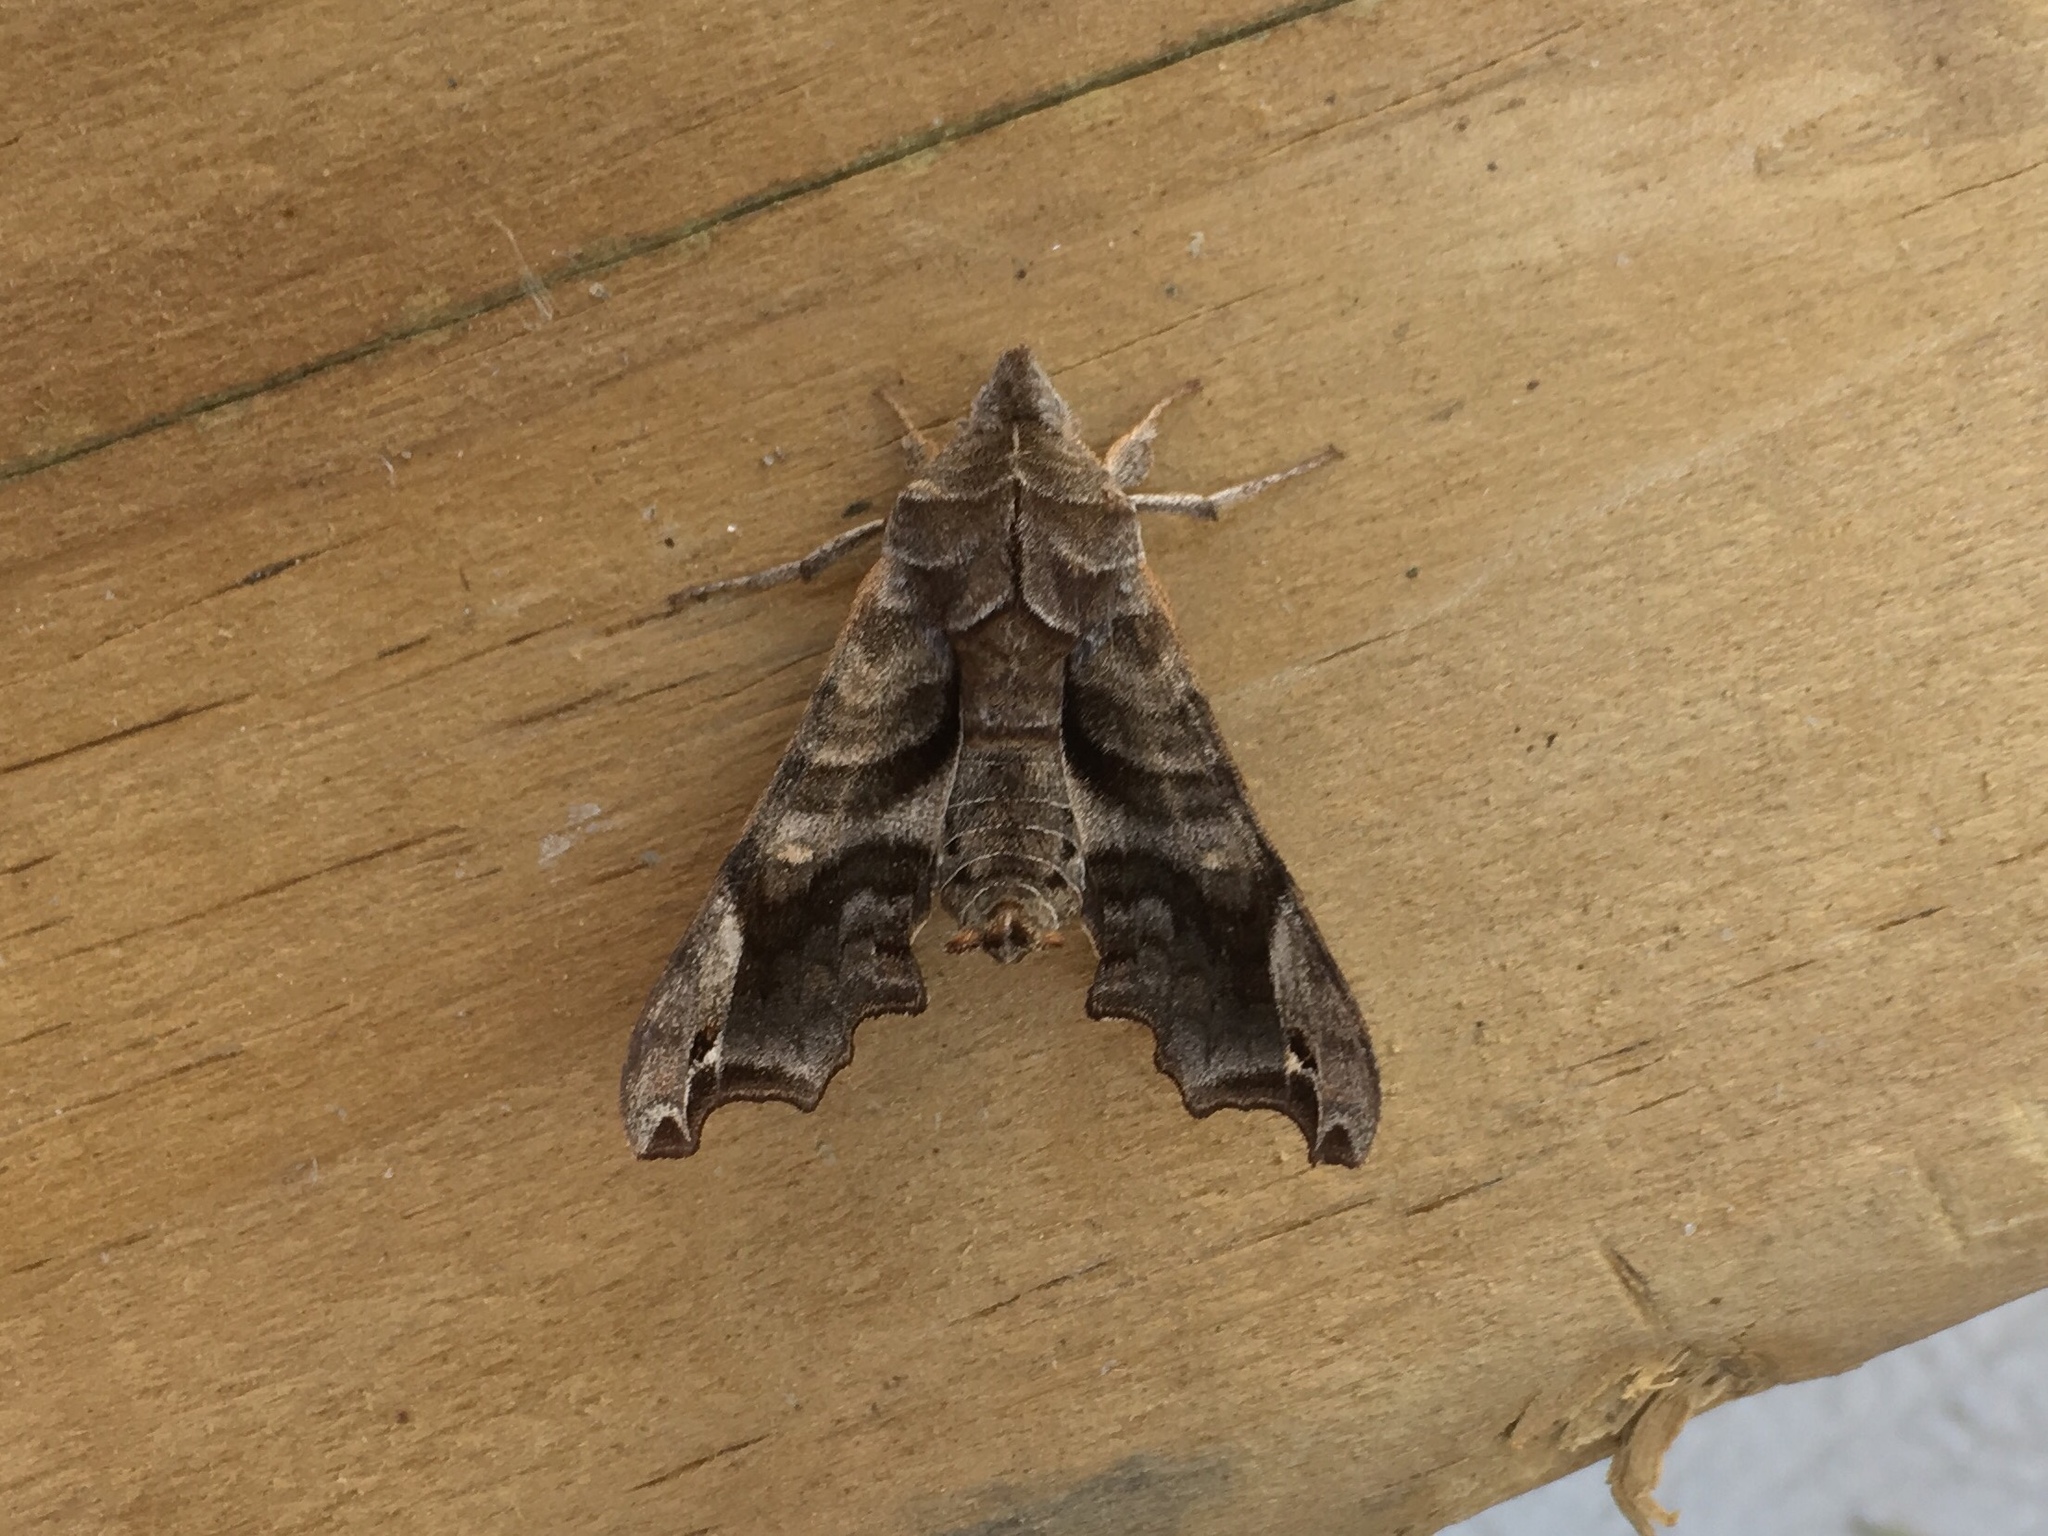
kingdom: Animalia
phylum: Arthropoda
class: Insecta
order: Lepidoptera
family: Sphingidae
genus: Deidamia
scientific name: Deidamia inscriptum
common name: Lettered sphinx
